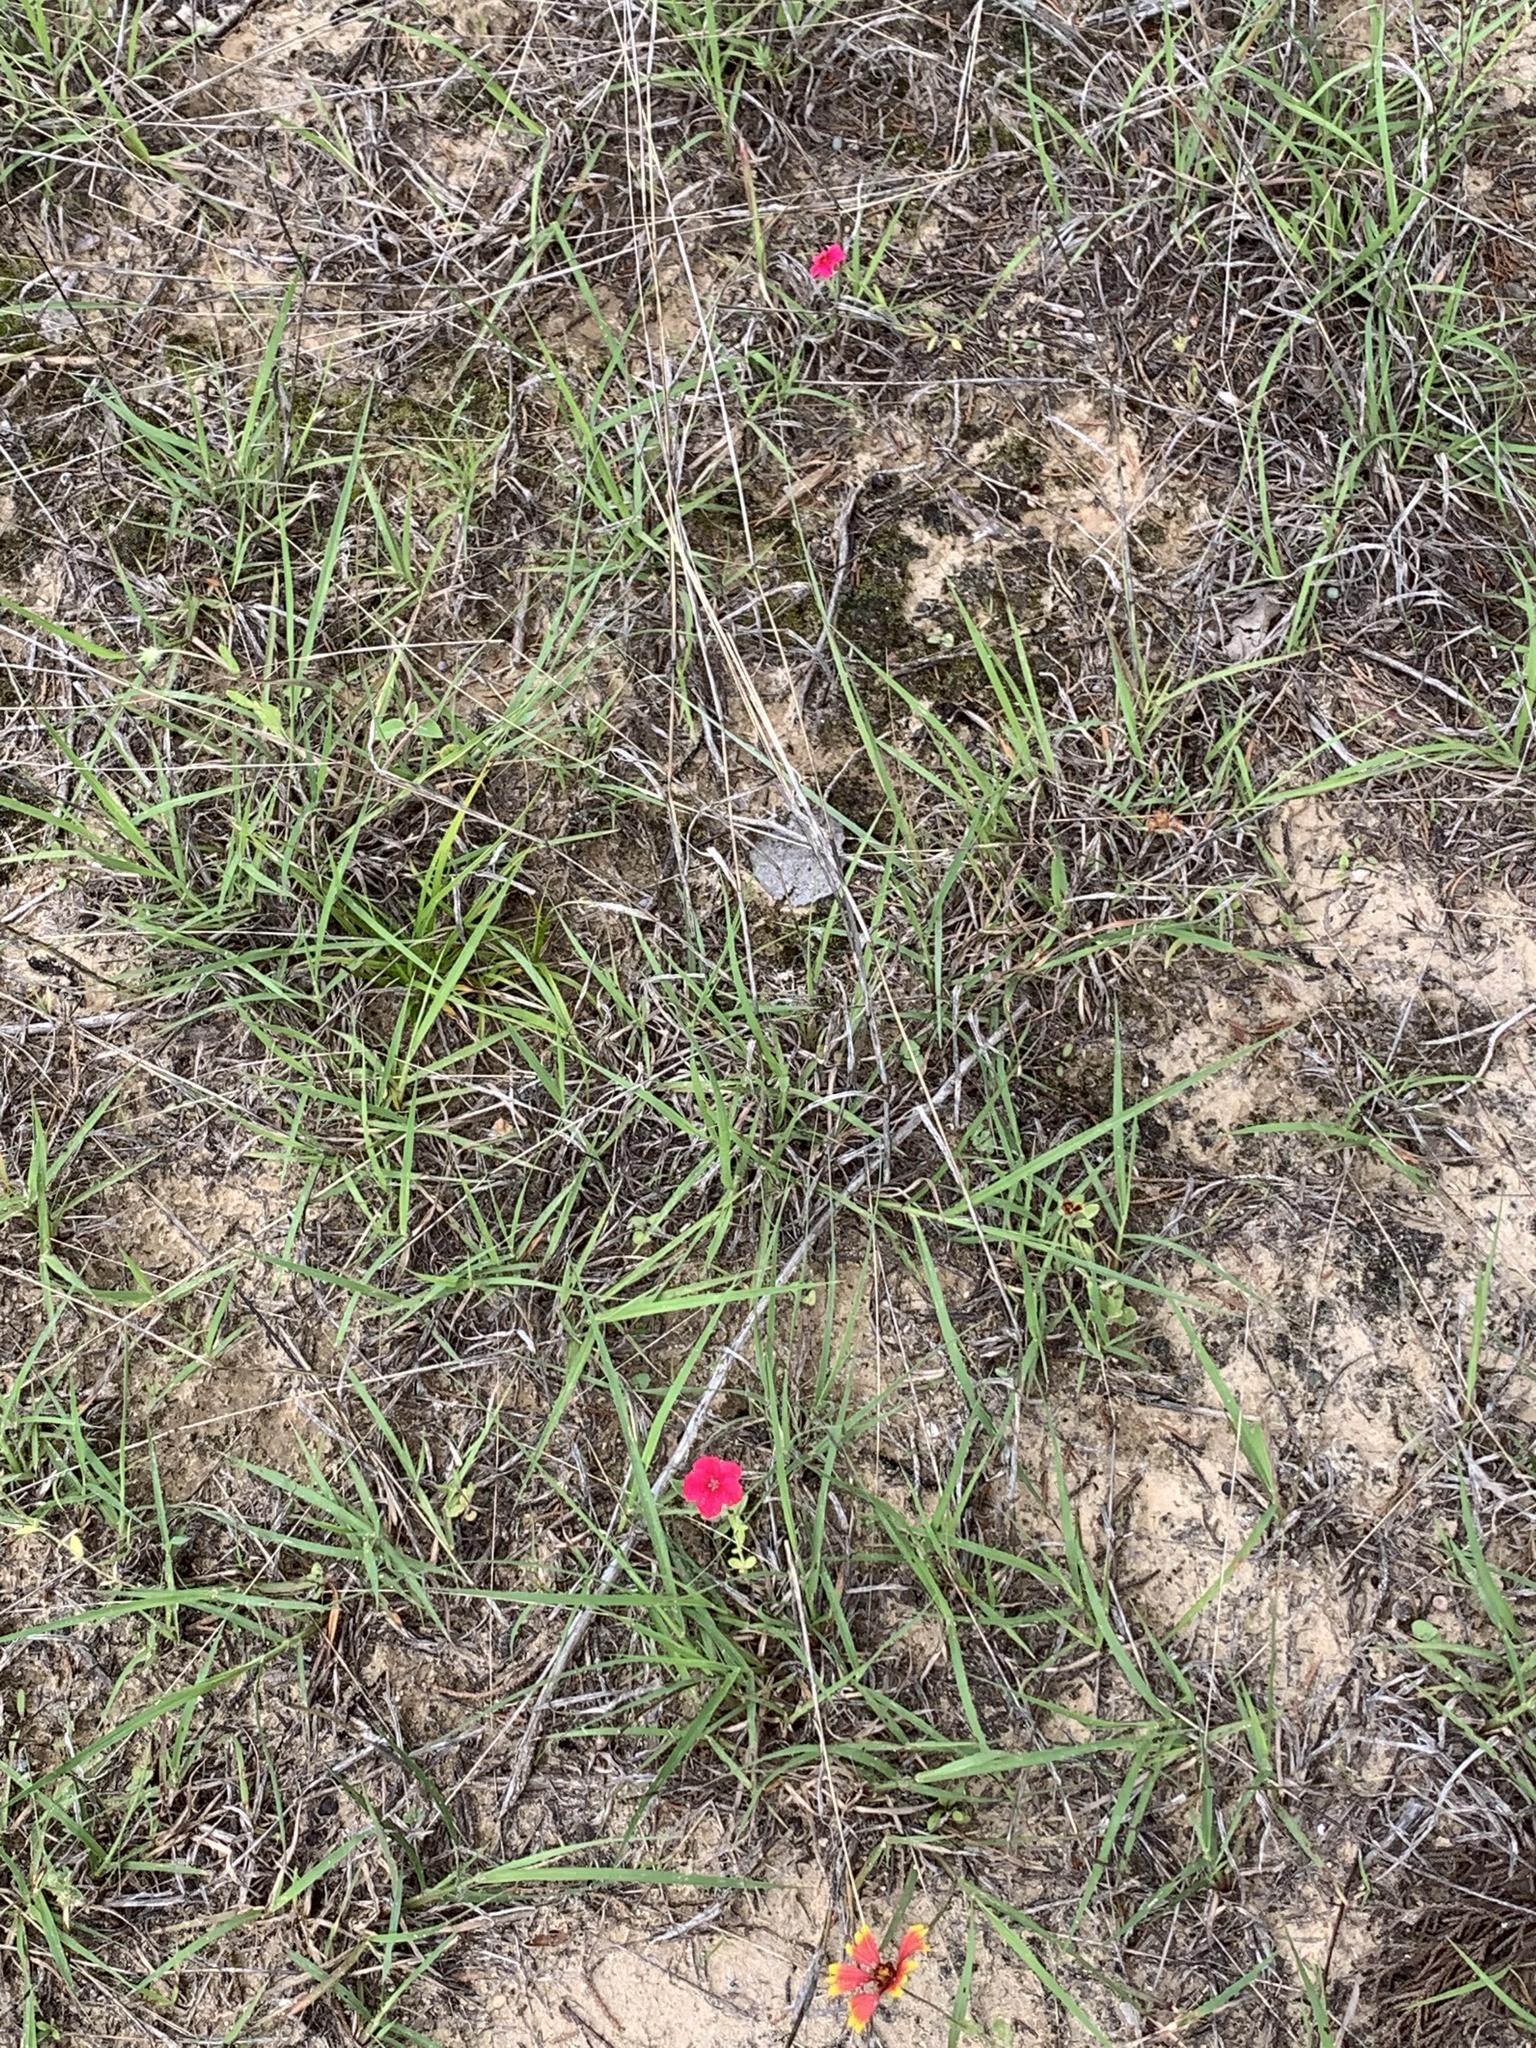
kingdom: Plantae
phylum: Tracheophyta
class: Magnoliopsida
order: Ericales
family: Polemoniaceae
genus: Phlox
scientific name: Phlox drummondii
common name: Drummond's phlox
